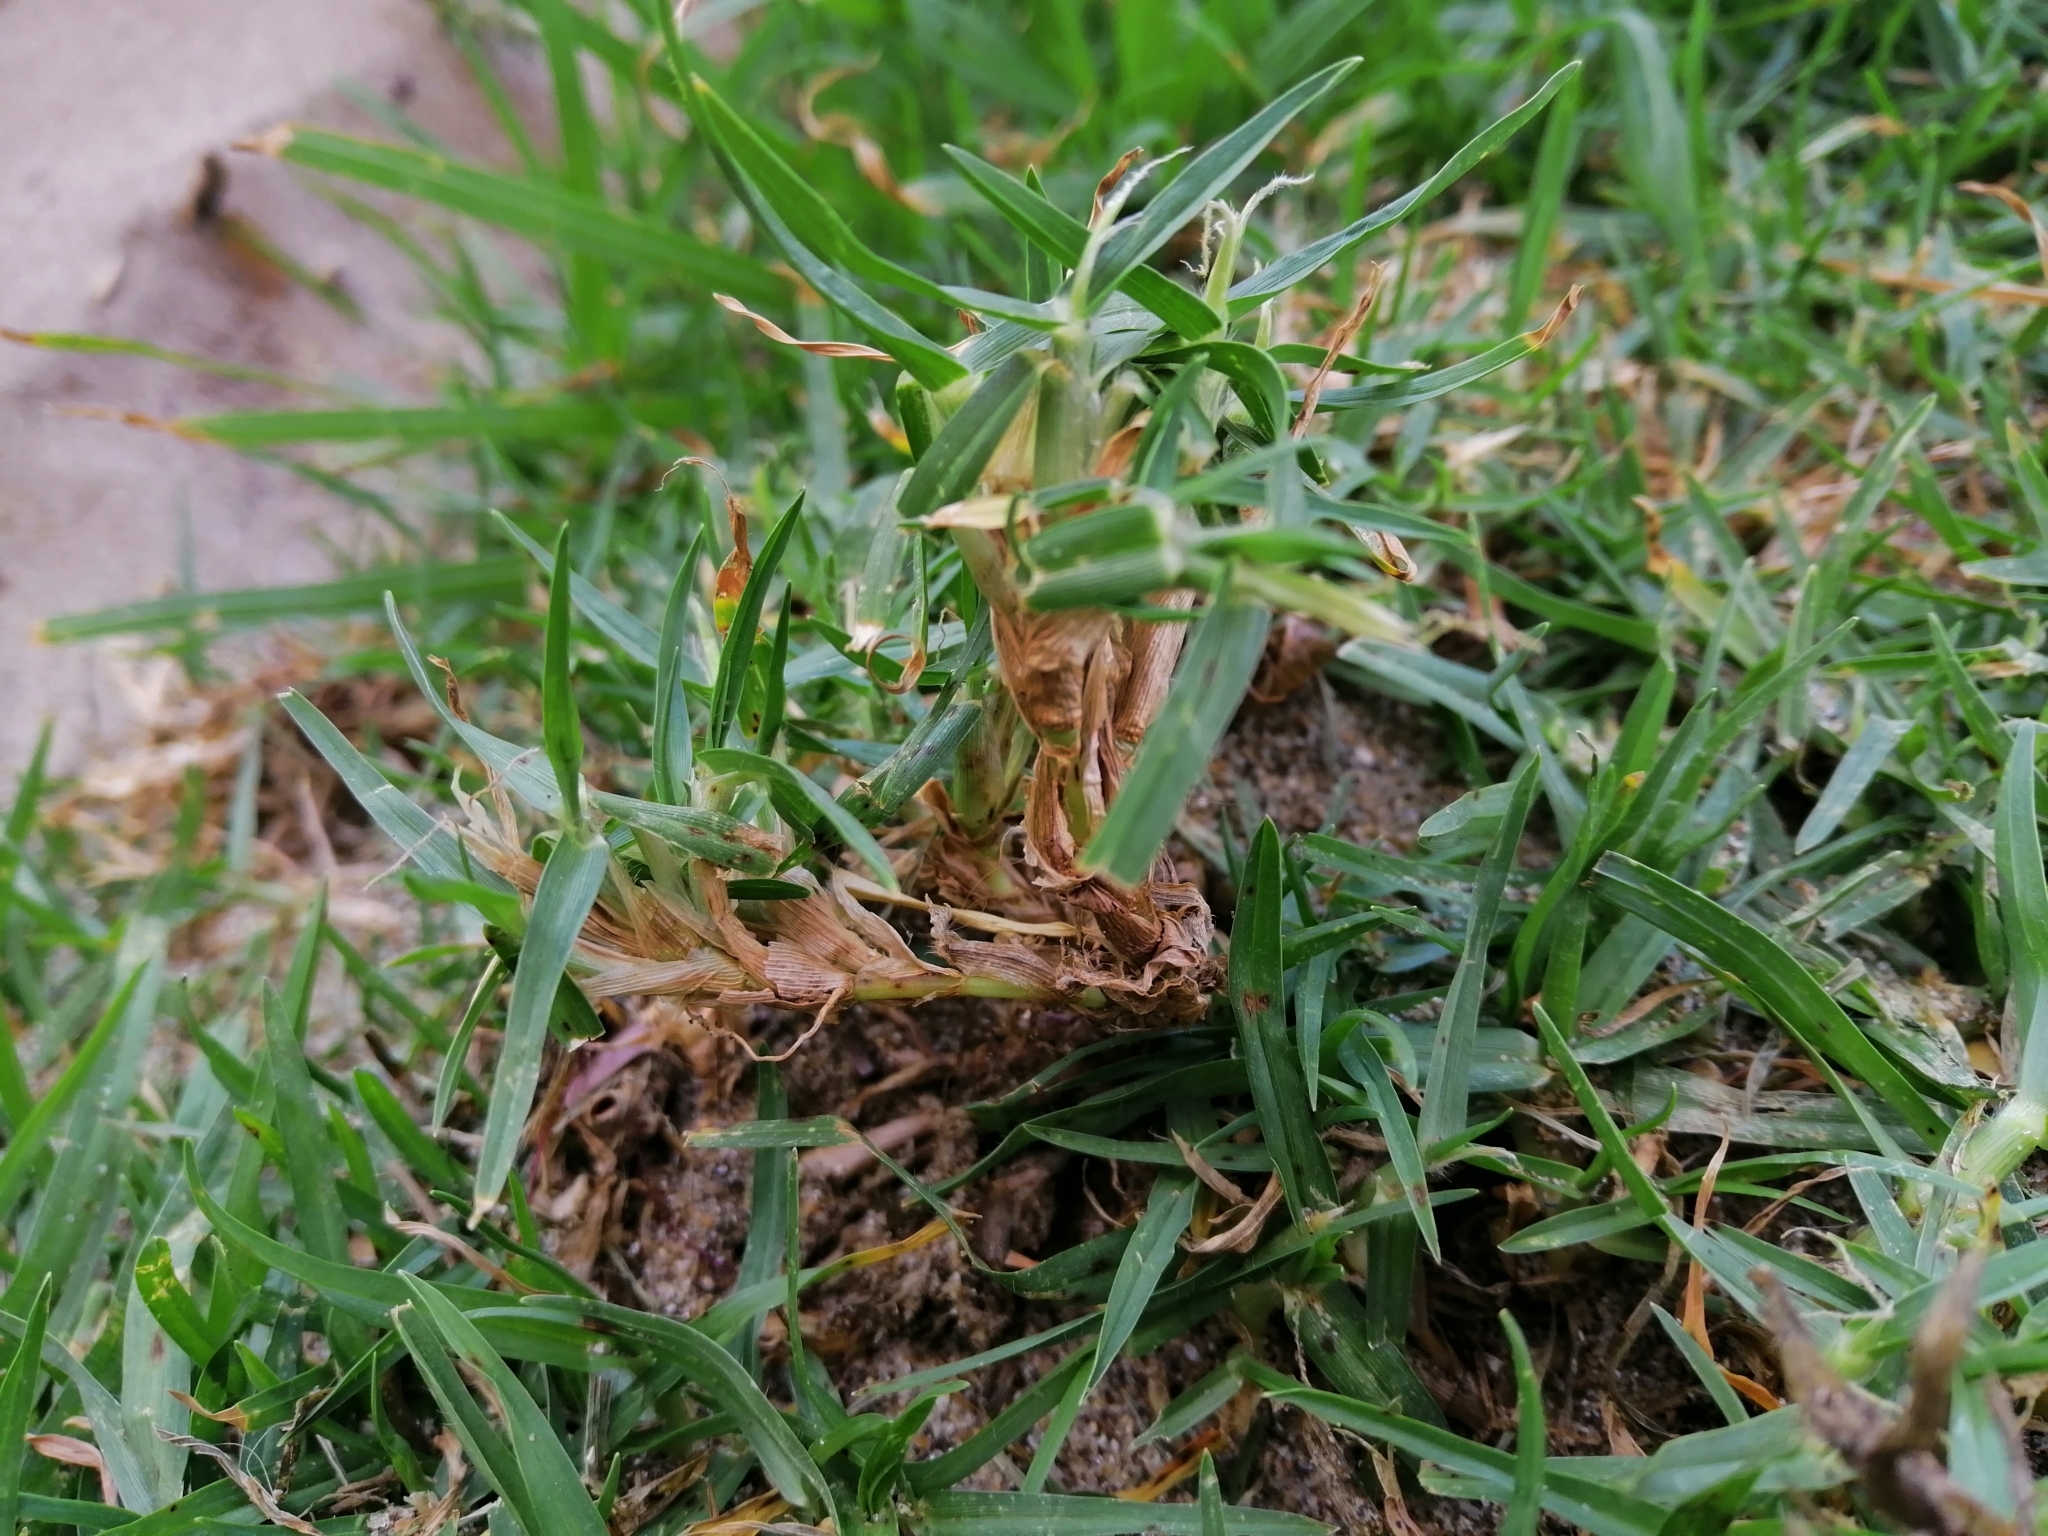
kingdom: Plantae
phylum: Tracheophyta
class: Liliopsida
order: Poales
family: Poaceae
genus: Cenchrus
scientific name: Cenchrus clandestinus
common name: Kikuyugrass
